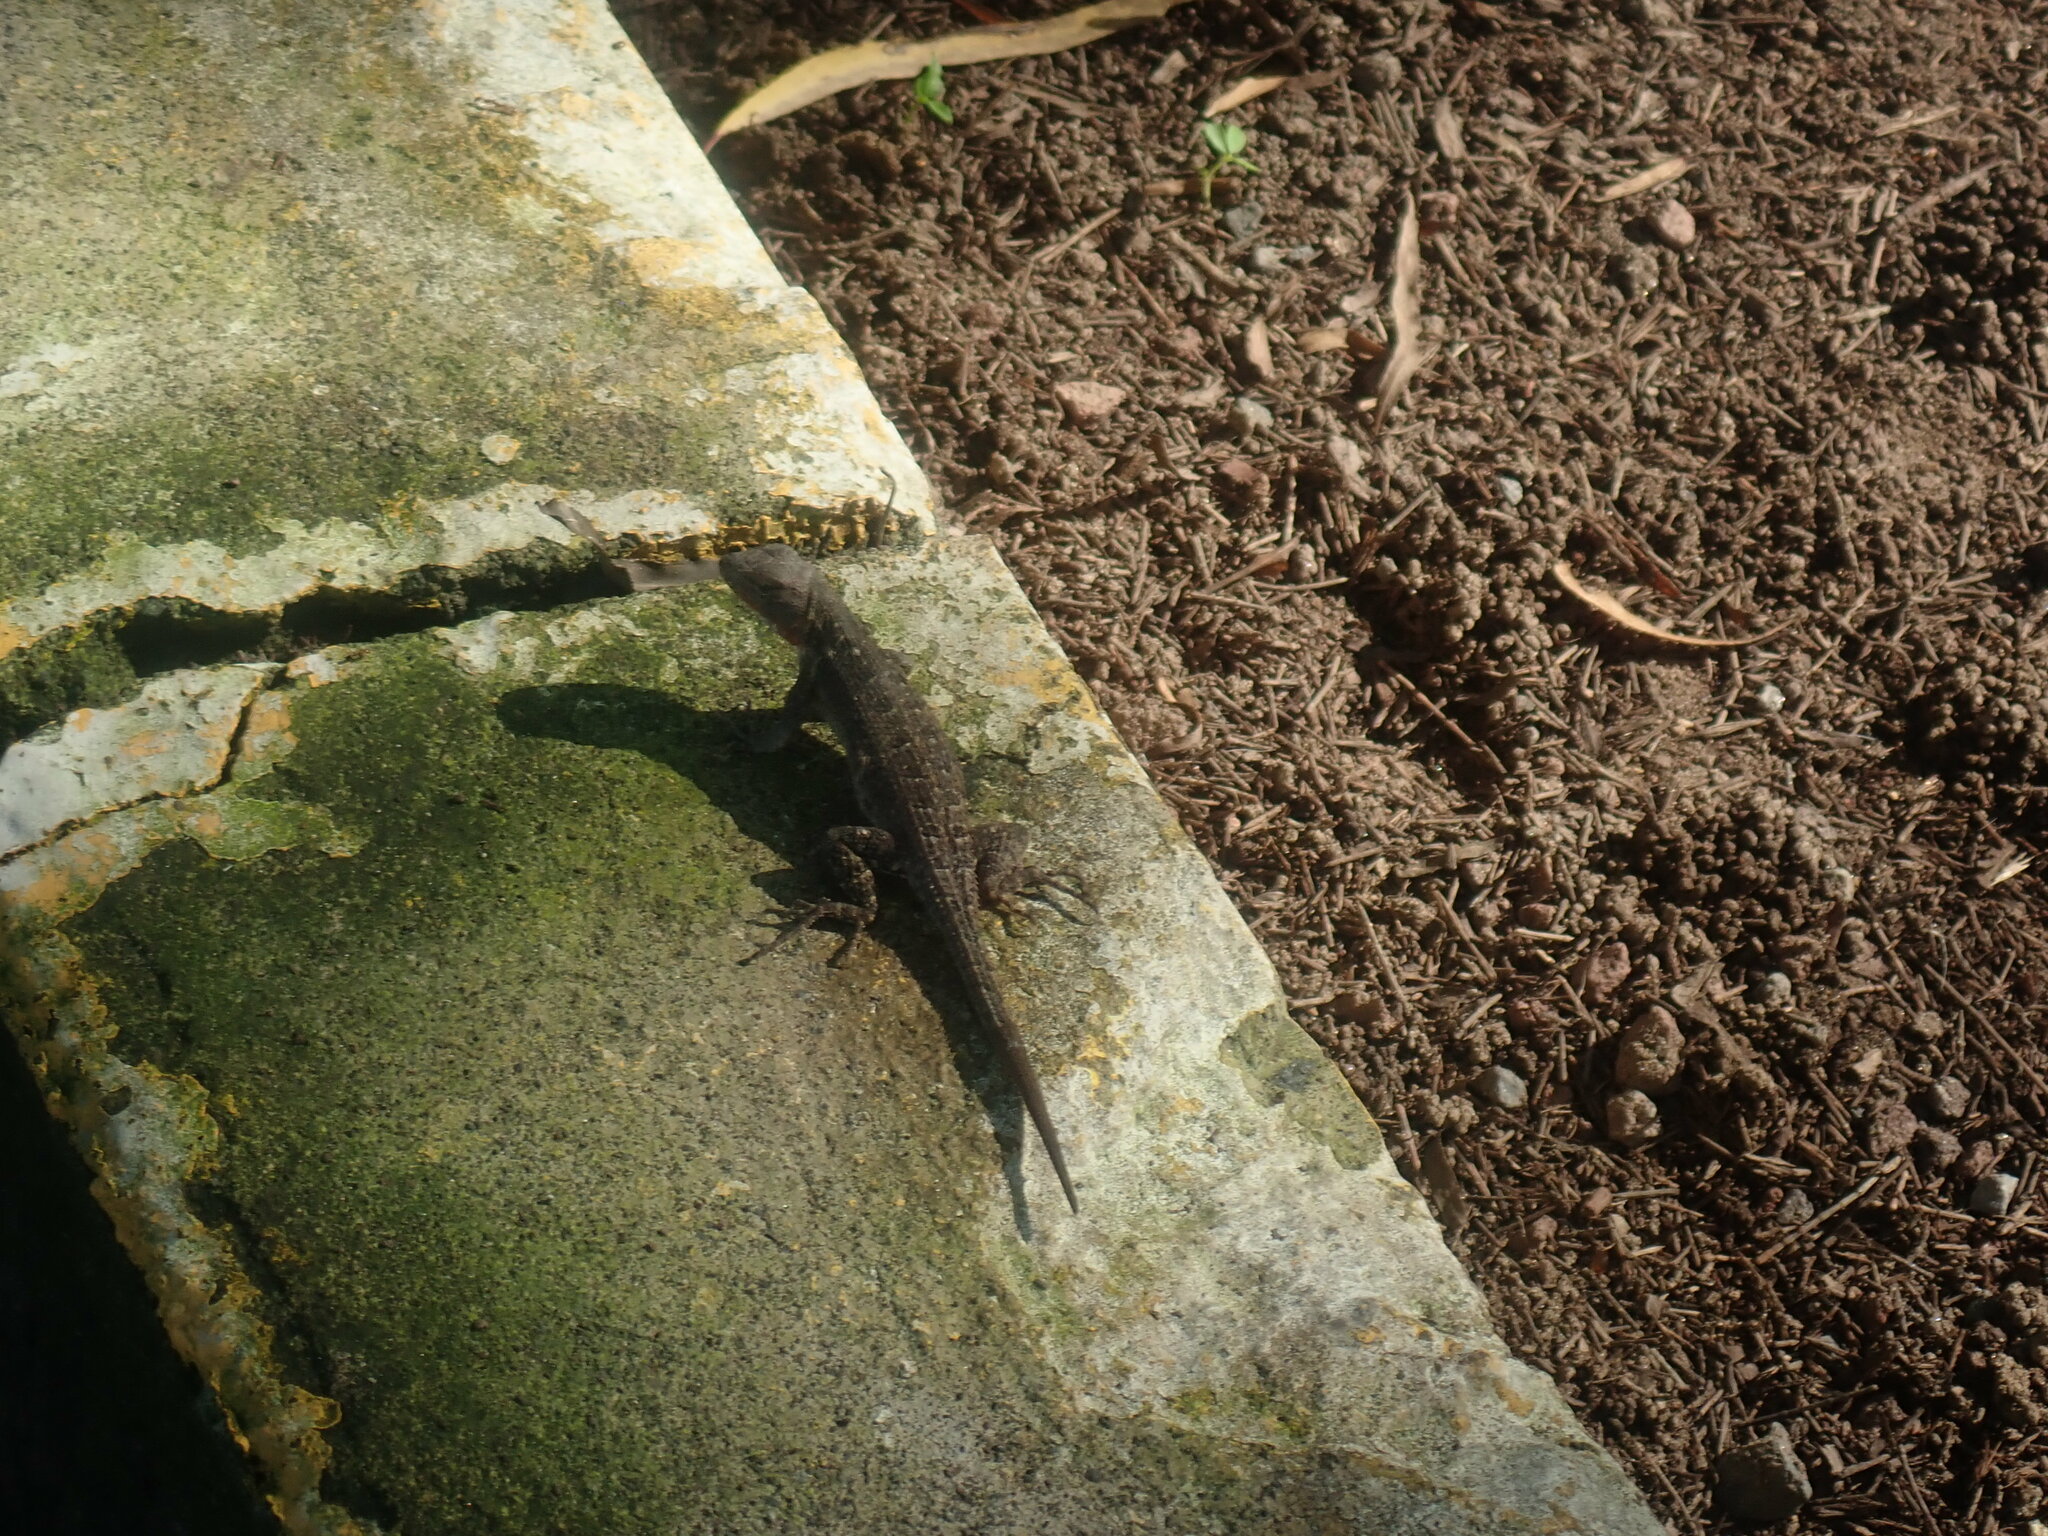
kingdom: Animalia
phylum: Chordata
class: Squamata
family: Phrynosomatidae
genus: Sceloporus
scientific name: Sceloporus variabilis
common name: Rosebelly lizard
